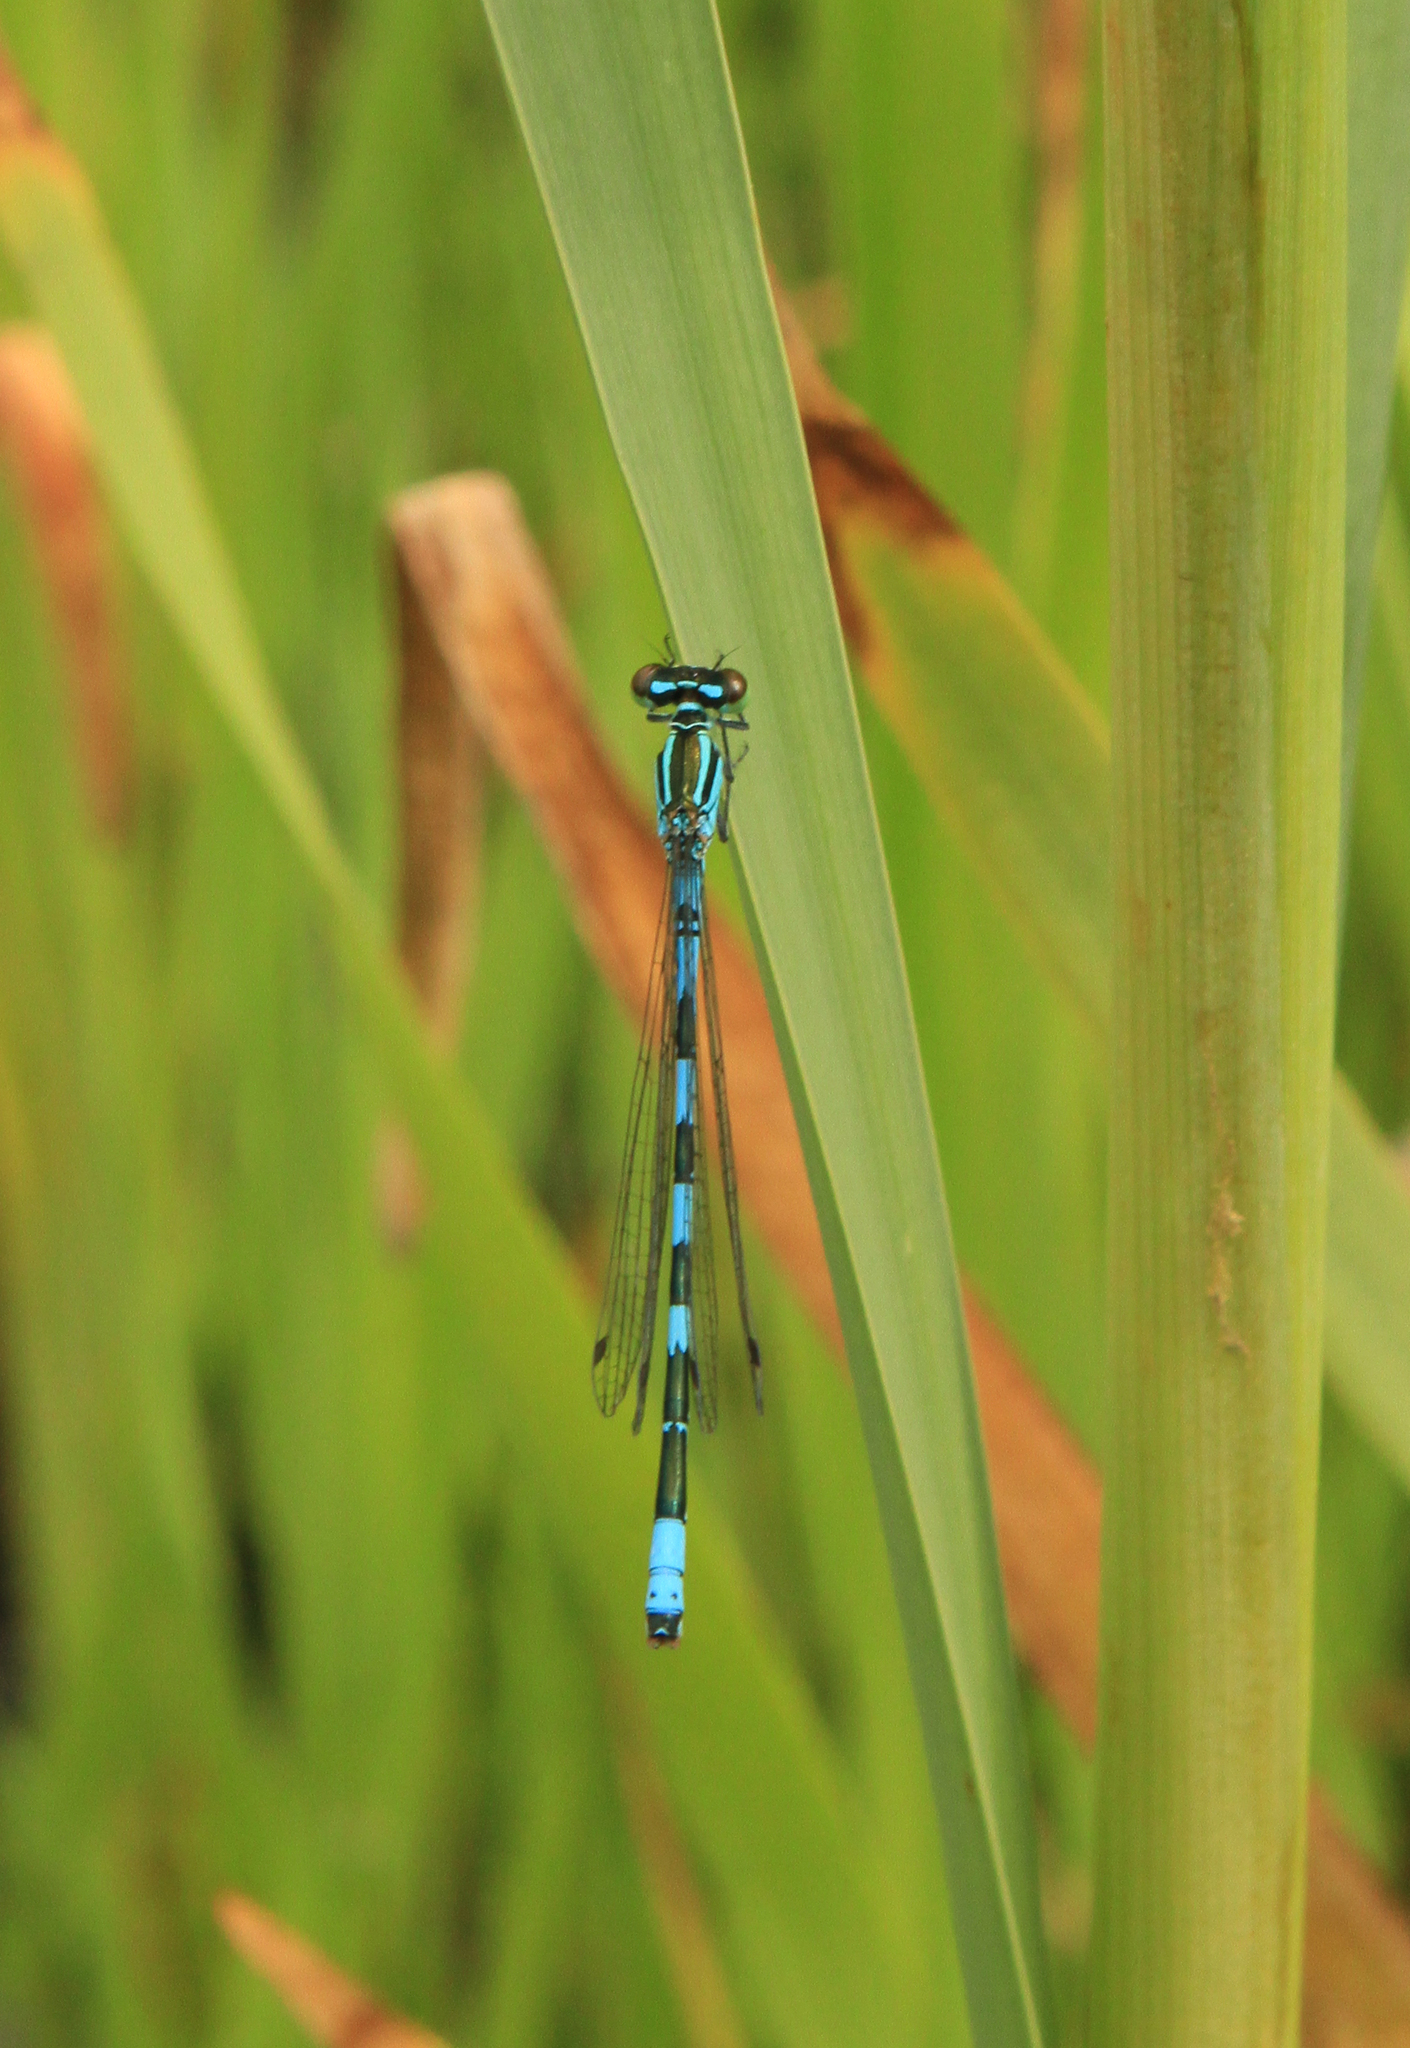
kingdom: Animalia
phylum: Arthropoda
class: Insecta
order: Odonata
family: Coenagrionidae
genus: Coenagrion
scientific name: Coenagrion hastulatum
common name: Spearhead bluet
